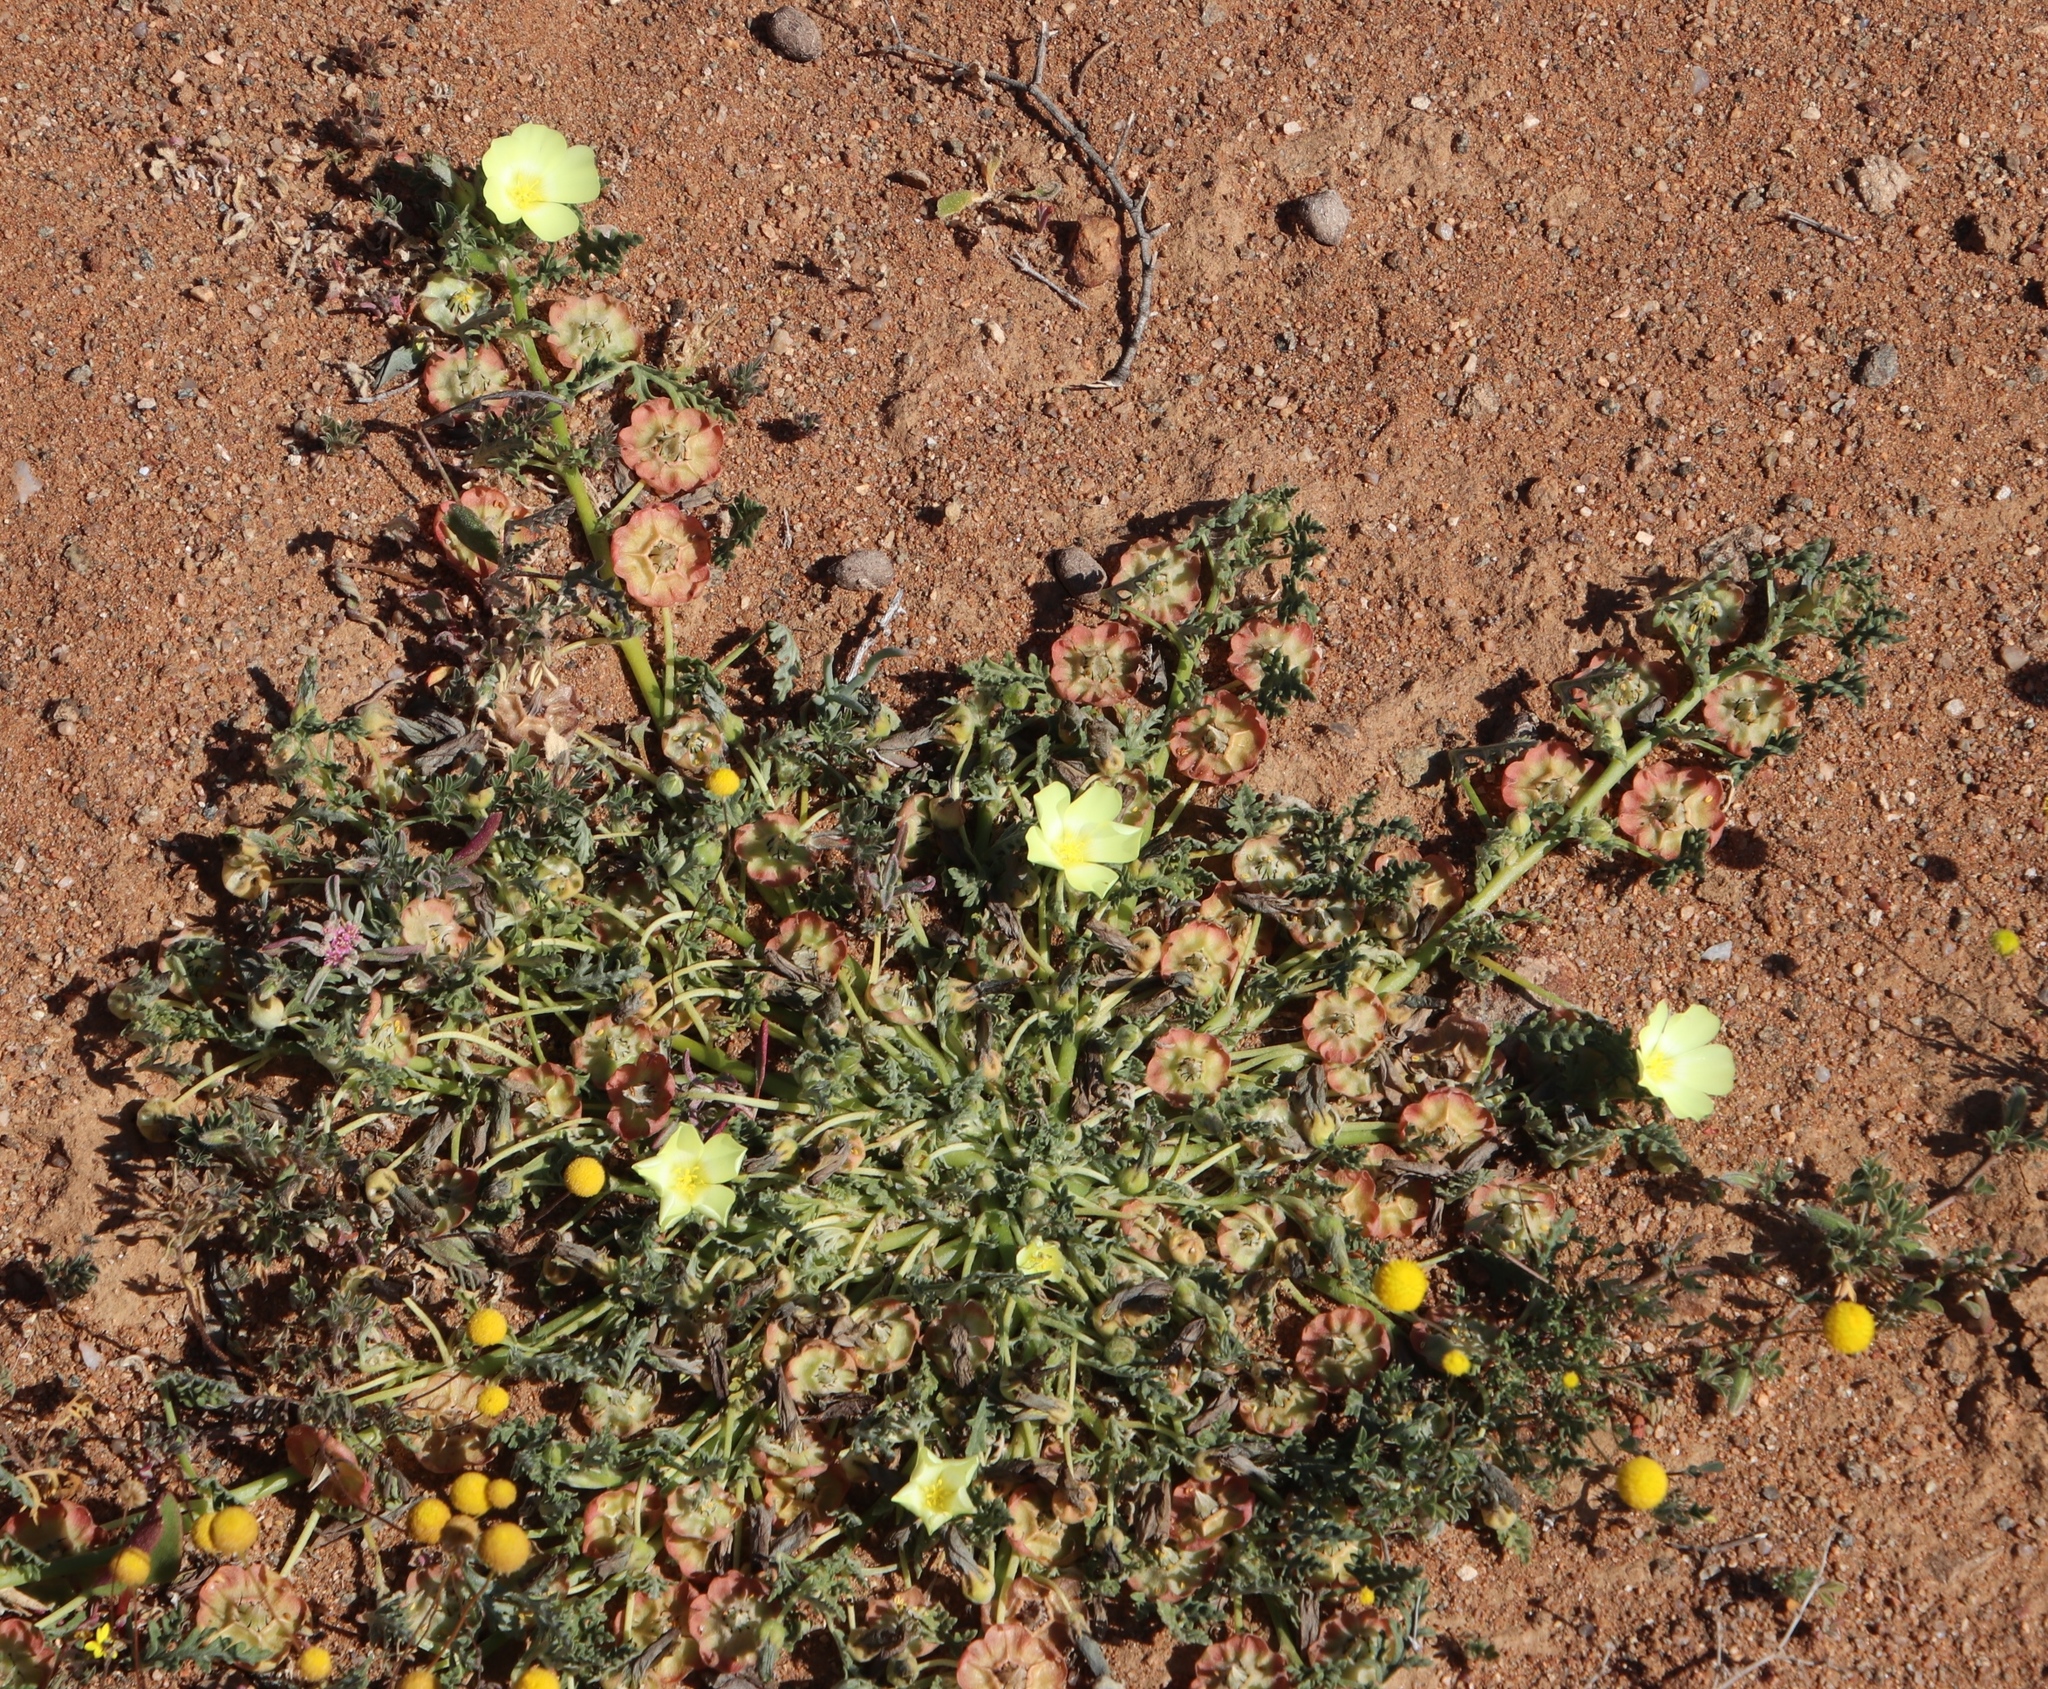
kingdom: Plantae
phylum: Tracheophyta
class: Magnoliopsida
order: Malvales
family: Neuradaceae
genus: Grielum
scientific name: Grielum humifusum
